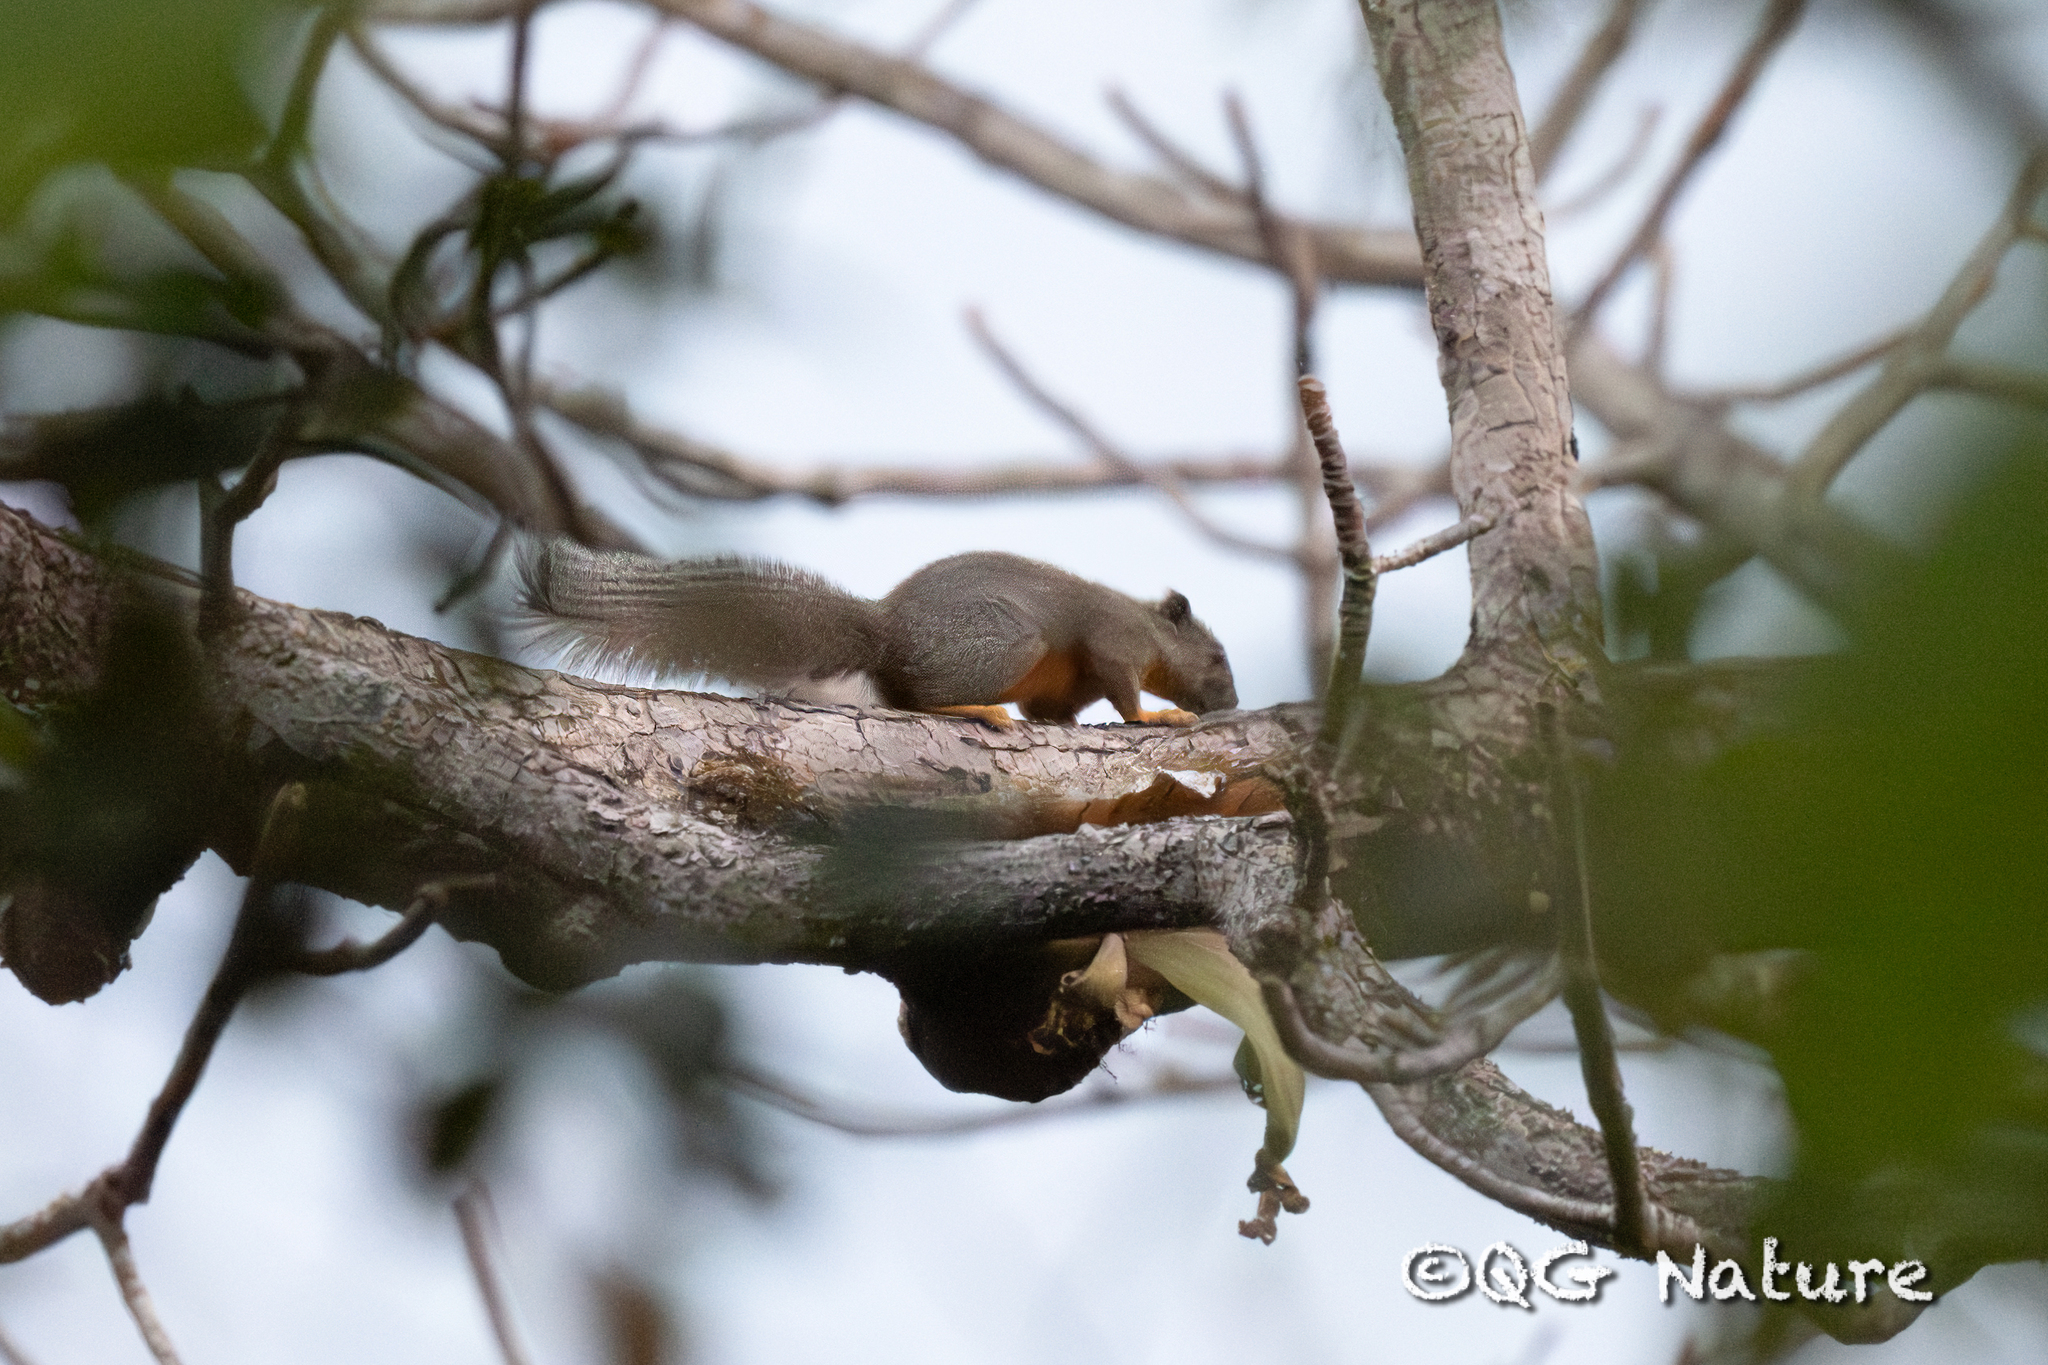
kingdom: Animalia
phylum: Chordata
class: Mammalia
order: Rodentia
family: Sciuridae
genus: Callosciurus
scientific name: Callosciurus phayrei
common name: Phayre's squirrel
